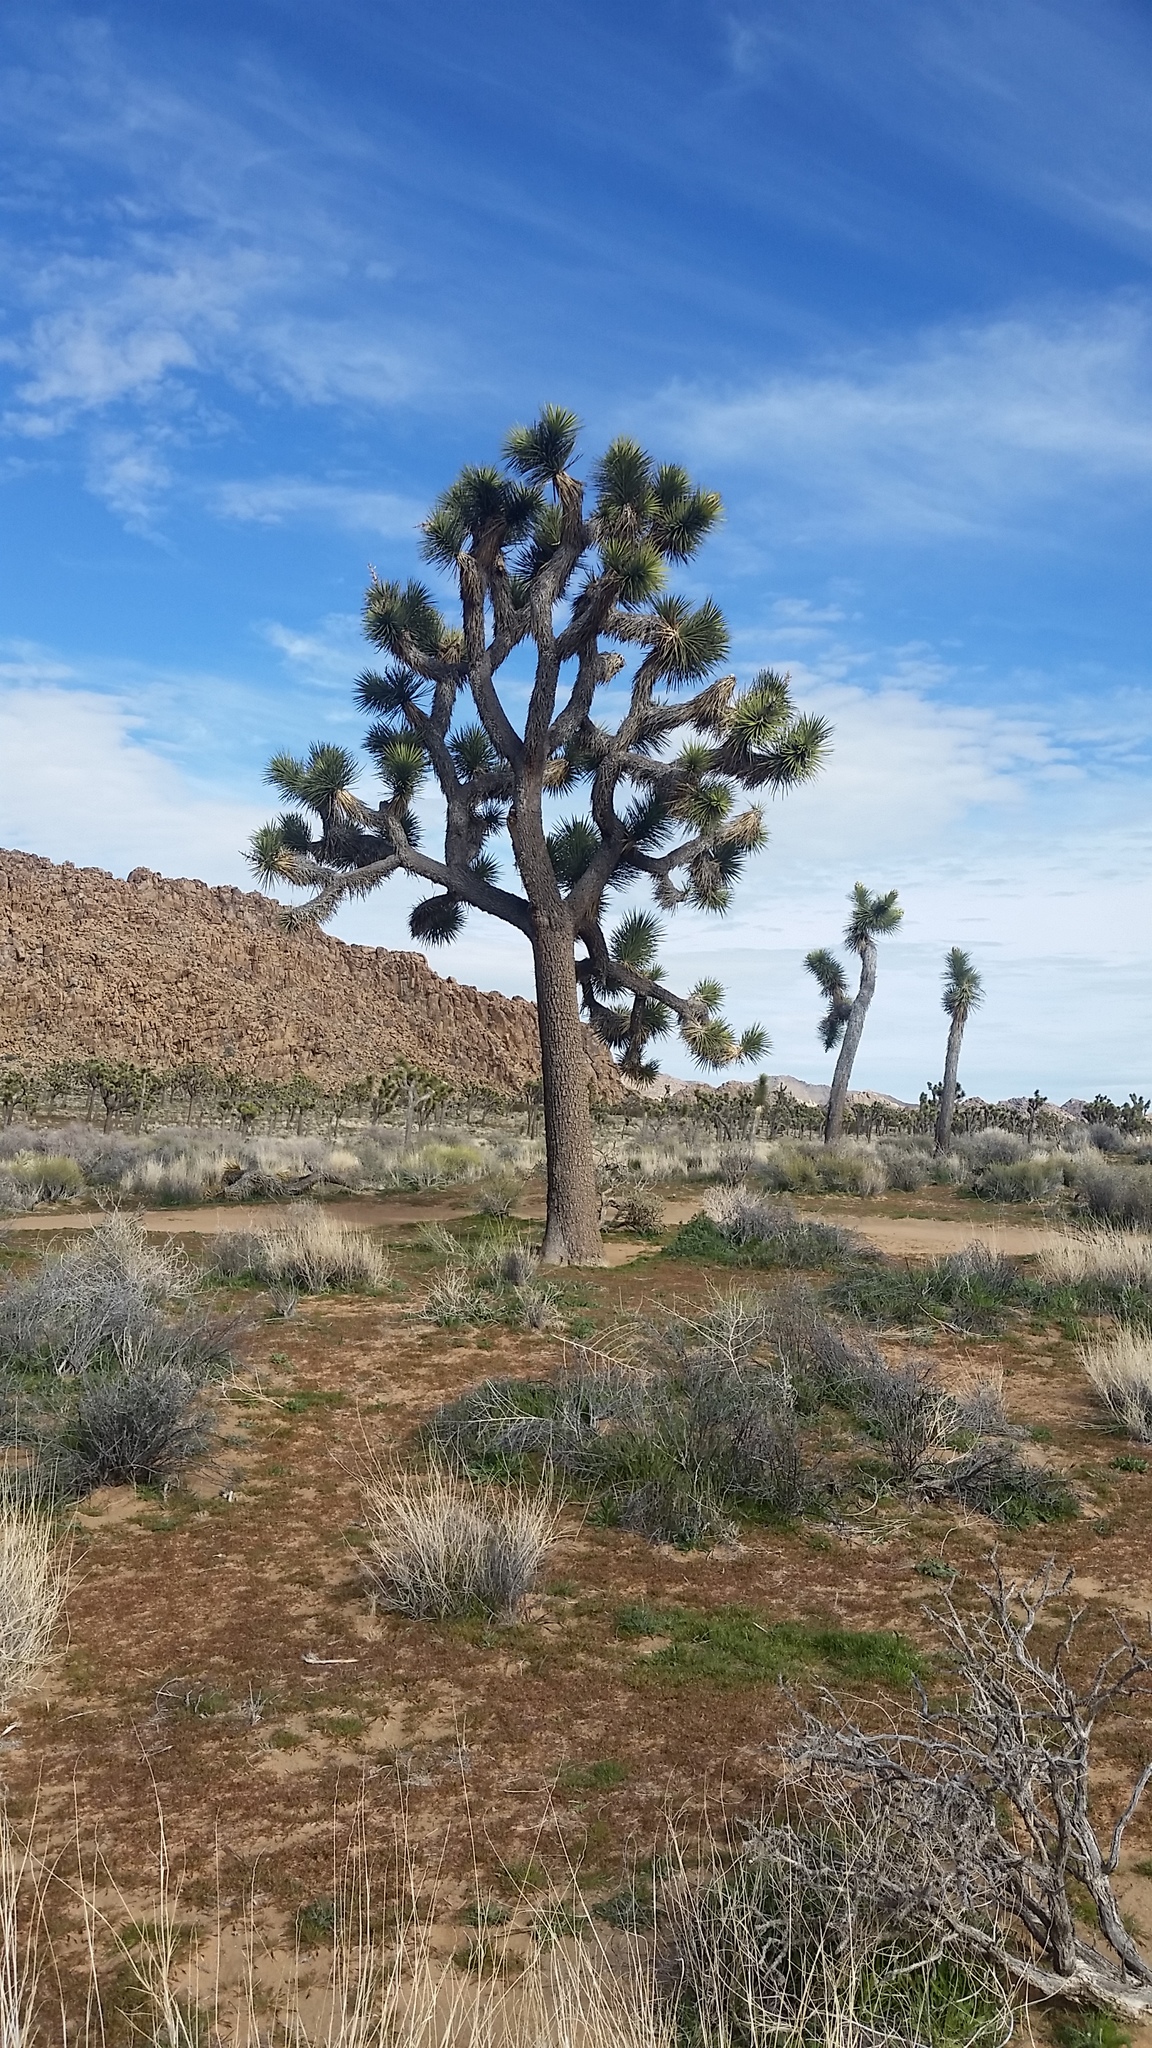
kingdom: Plantae
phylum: Tracheophyta
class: Liliopsida
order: Asparagales
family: Asparagaceae
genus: Yucca
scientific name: Yucca brevifolia
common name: Joshua tree
